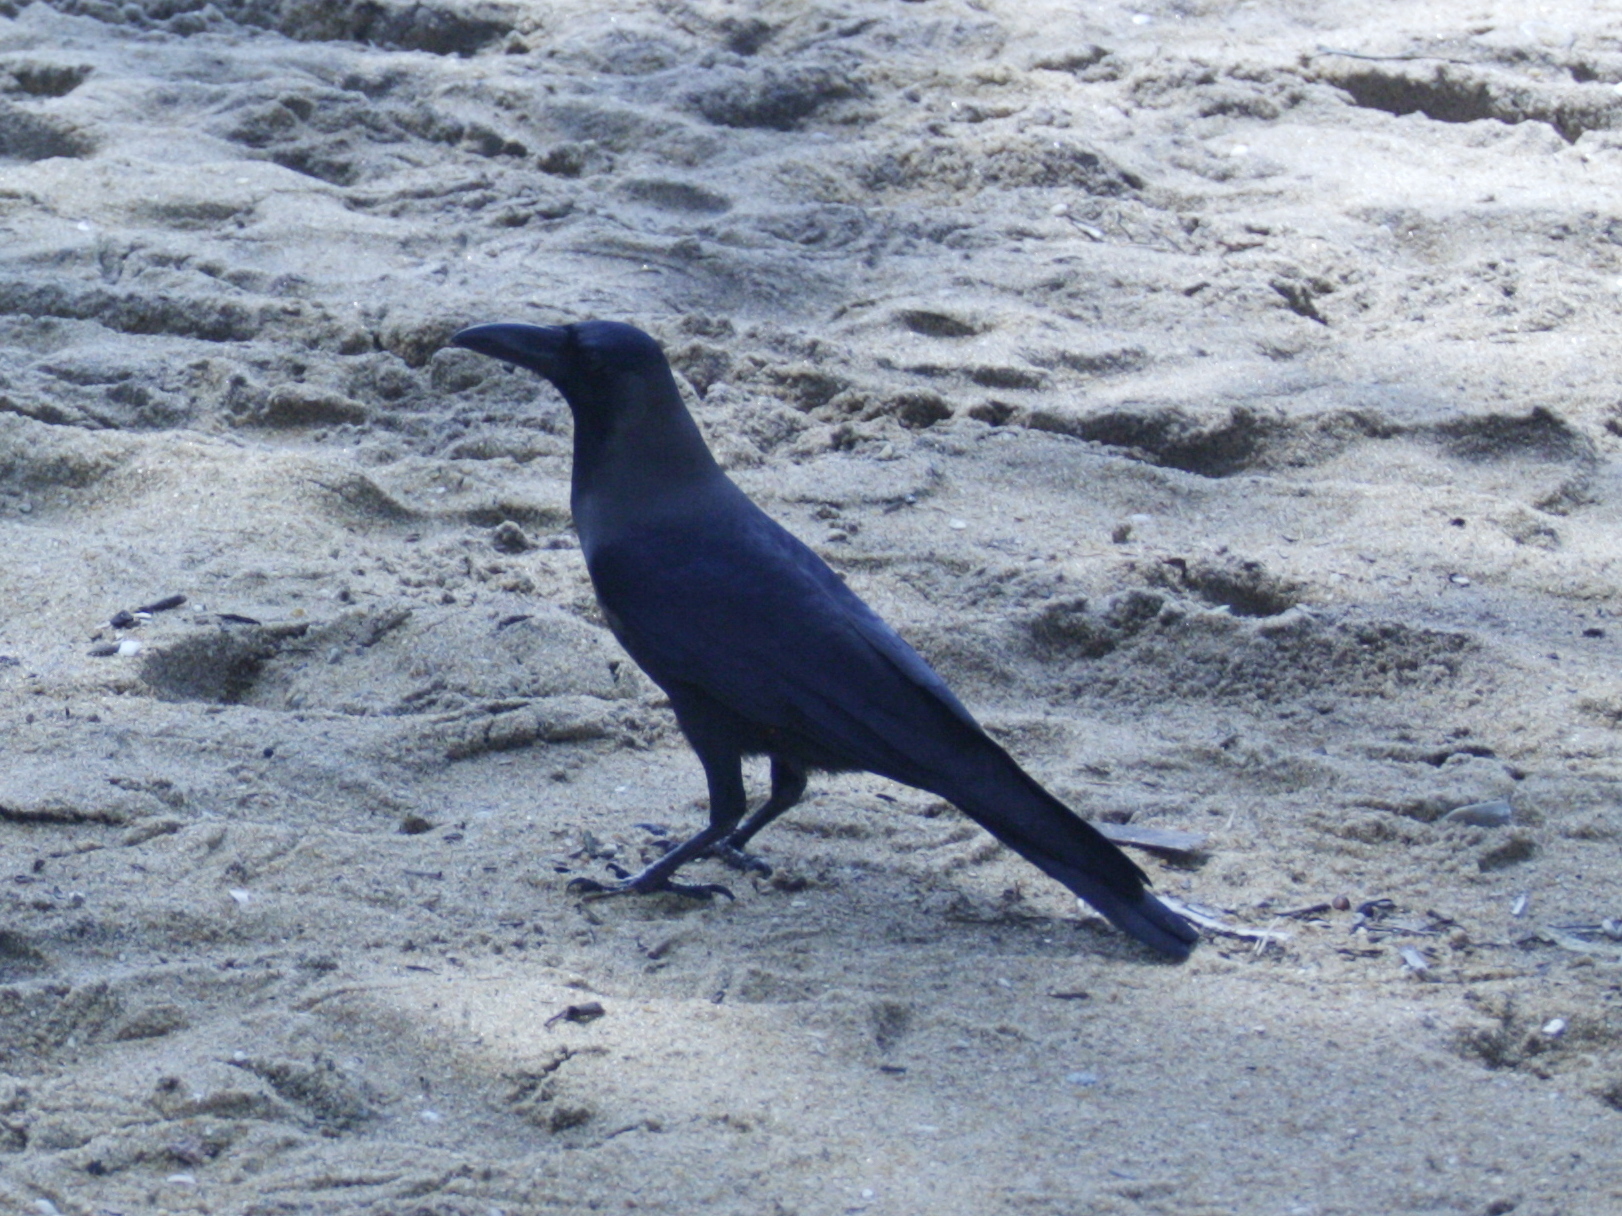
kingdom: Animalia
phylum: Chordata
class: Aves
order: Passeriformes
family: Corvidae
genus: Corvus
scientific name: Corvus splendens
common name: House crow
